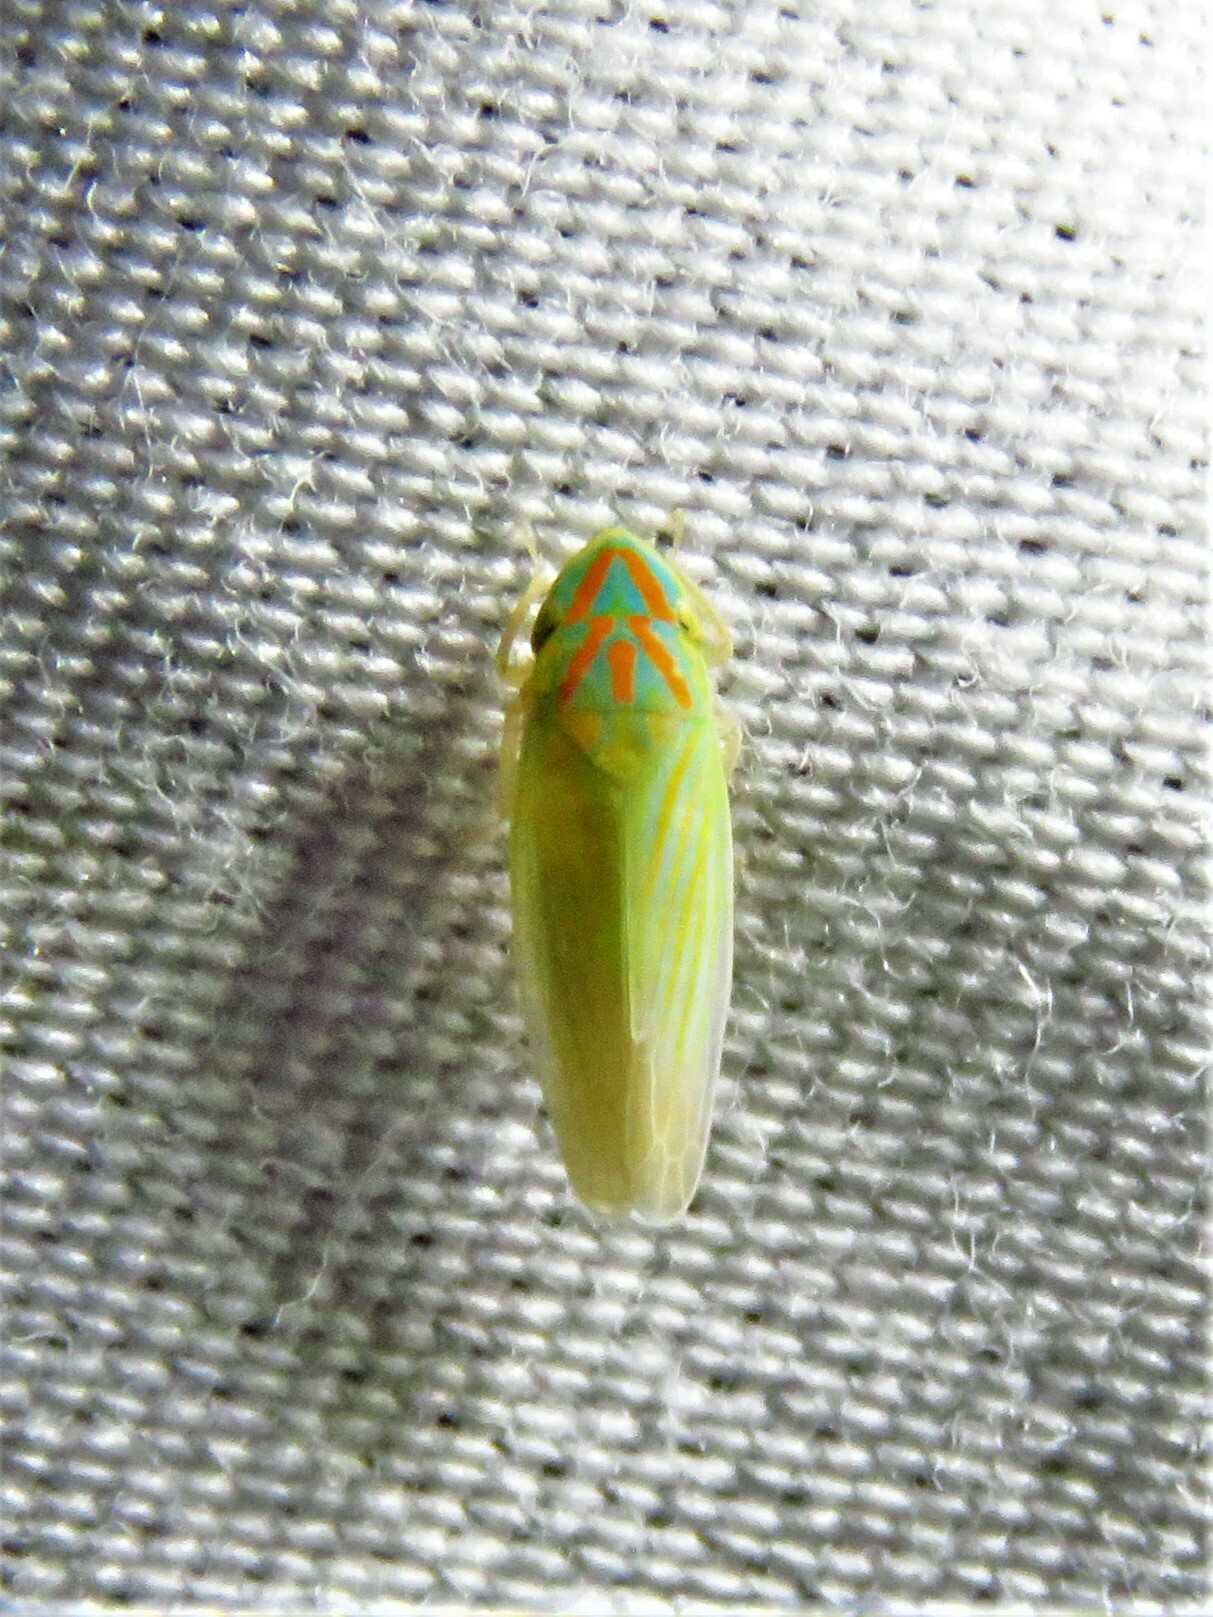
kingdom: Animalia
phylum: Arthropoda
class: Insecta
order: Hemiptera
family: Cicadellidae
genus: Spangbergiella
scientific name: Spangbergiella vulnerata
